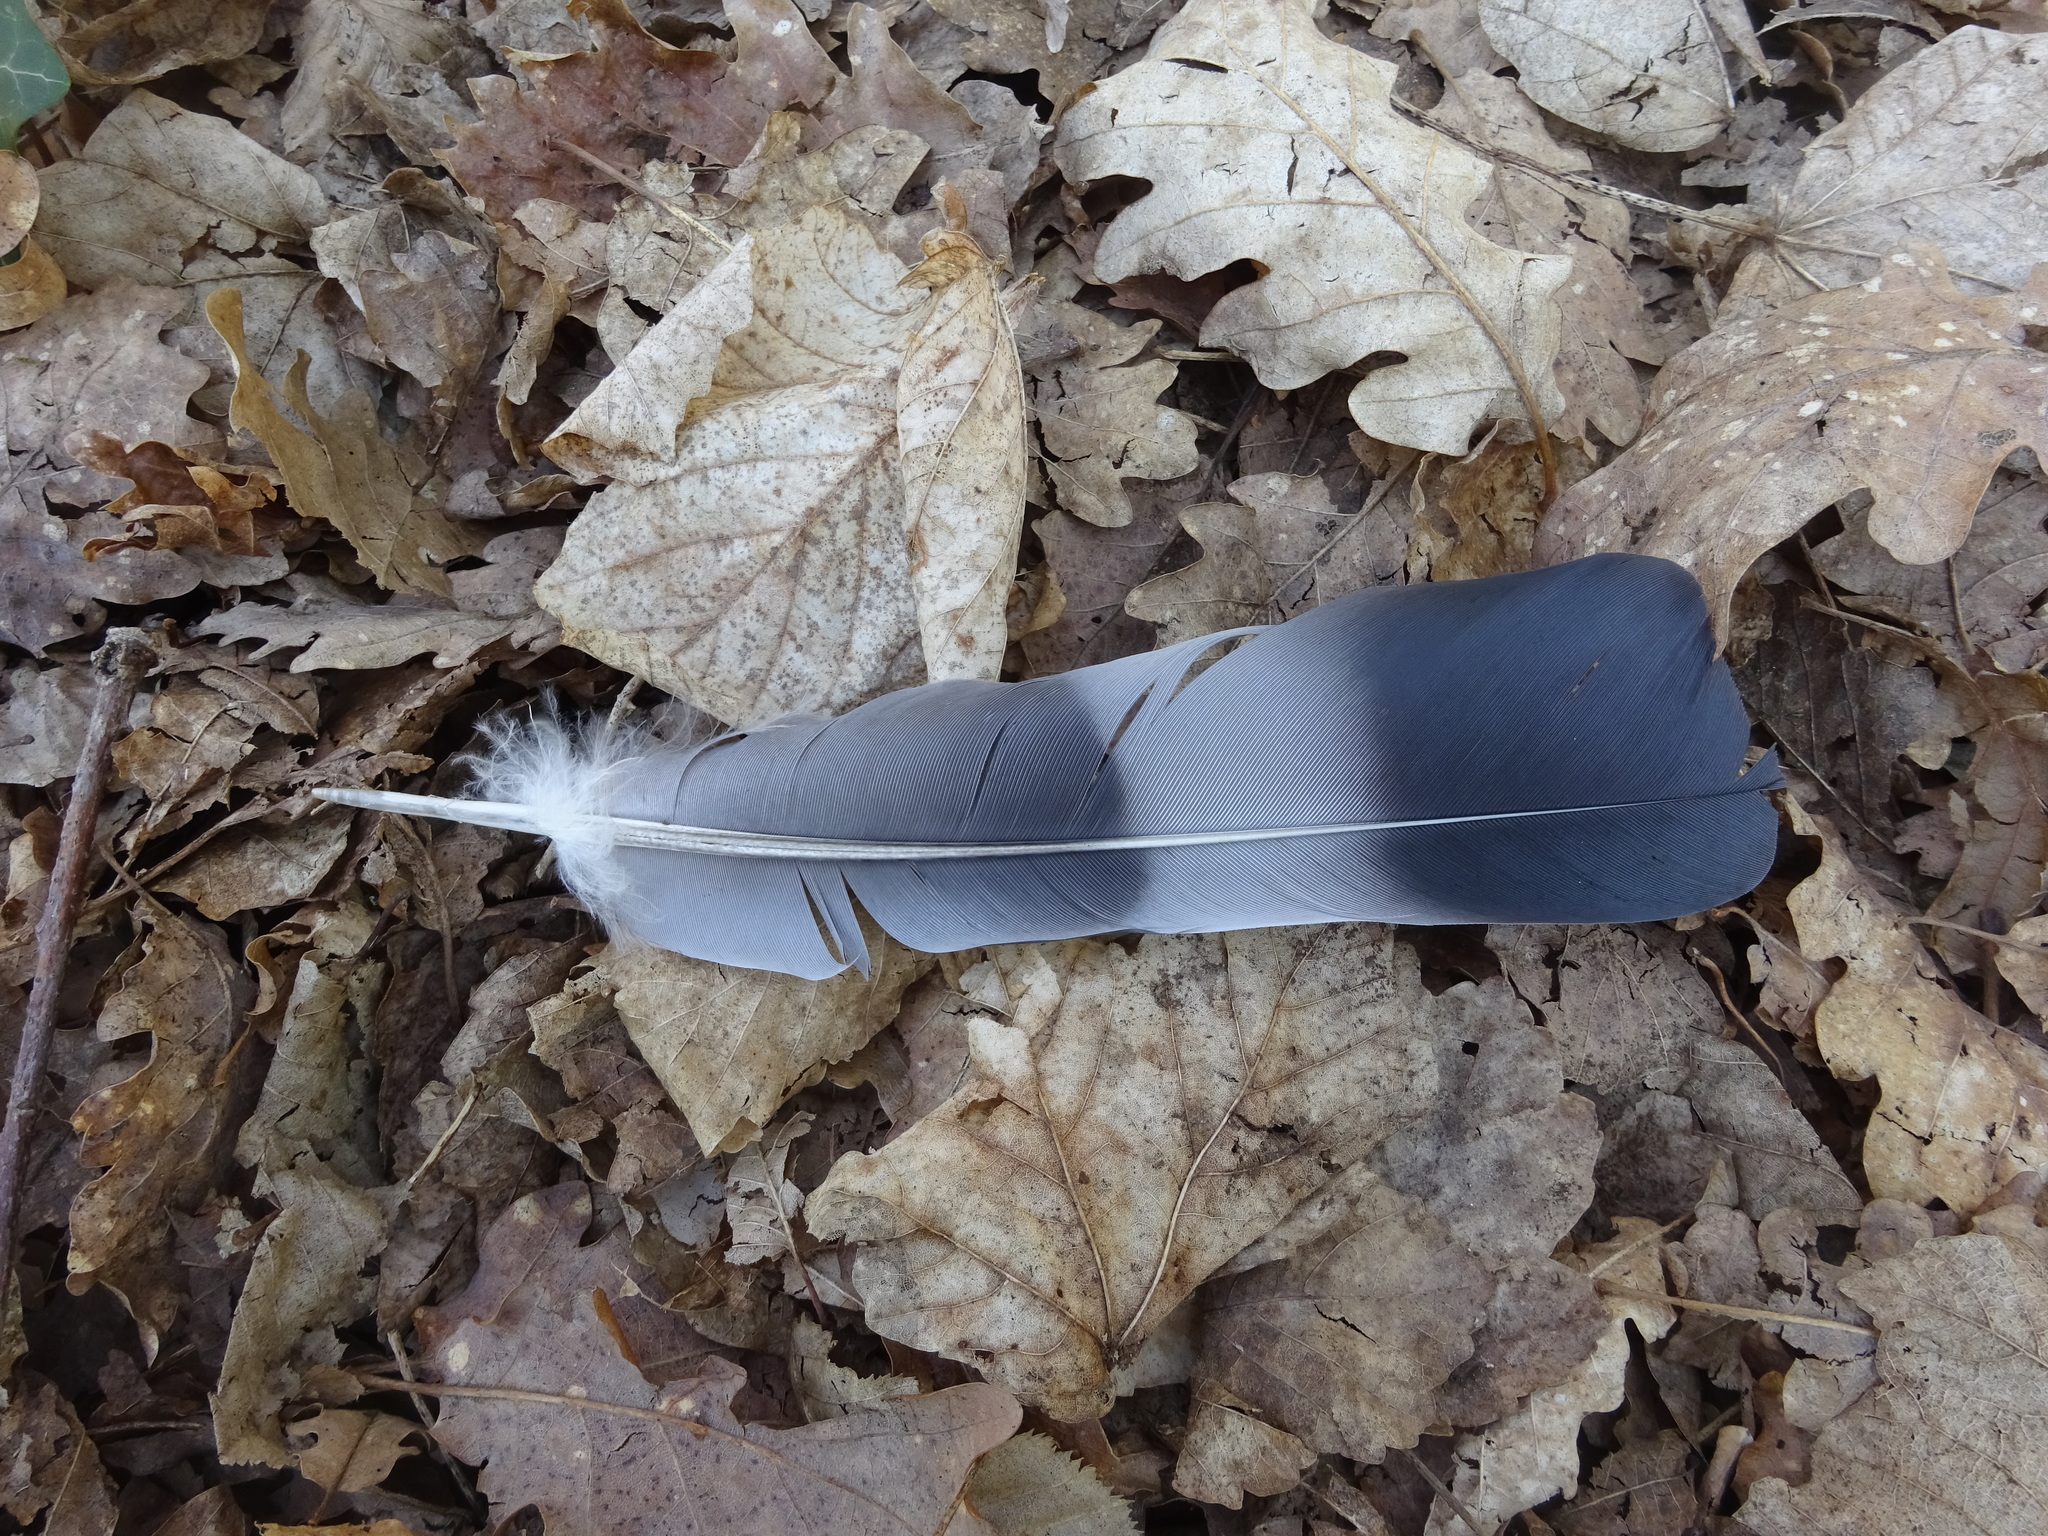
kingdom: Animalia
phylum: Chordata
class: Aves
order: Columbiformes
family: Columbidae
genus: Columba
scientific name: Columba palumbus
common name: Common wood pigeon
